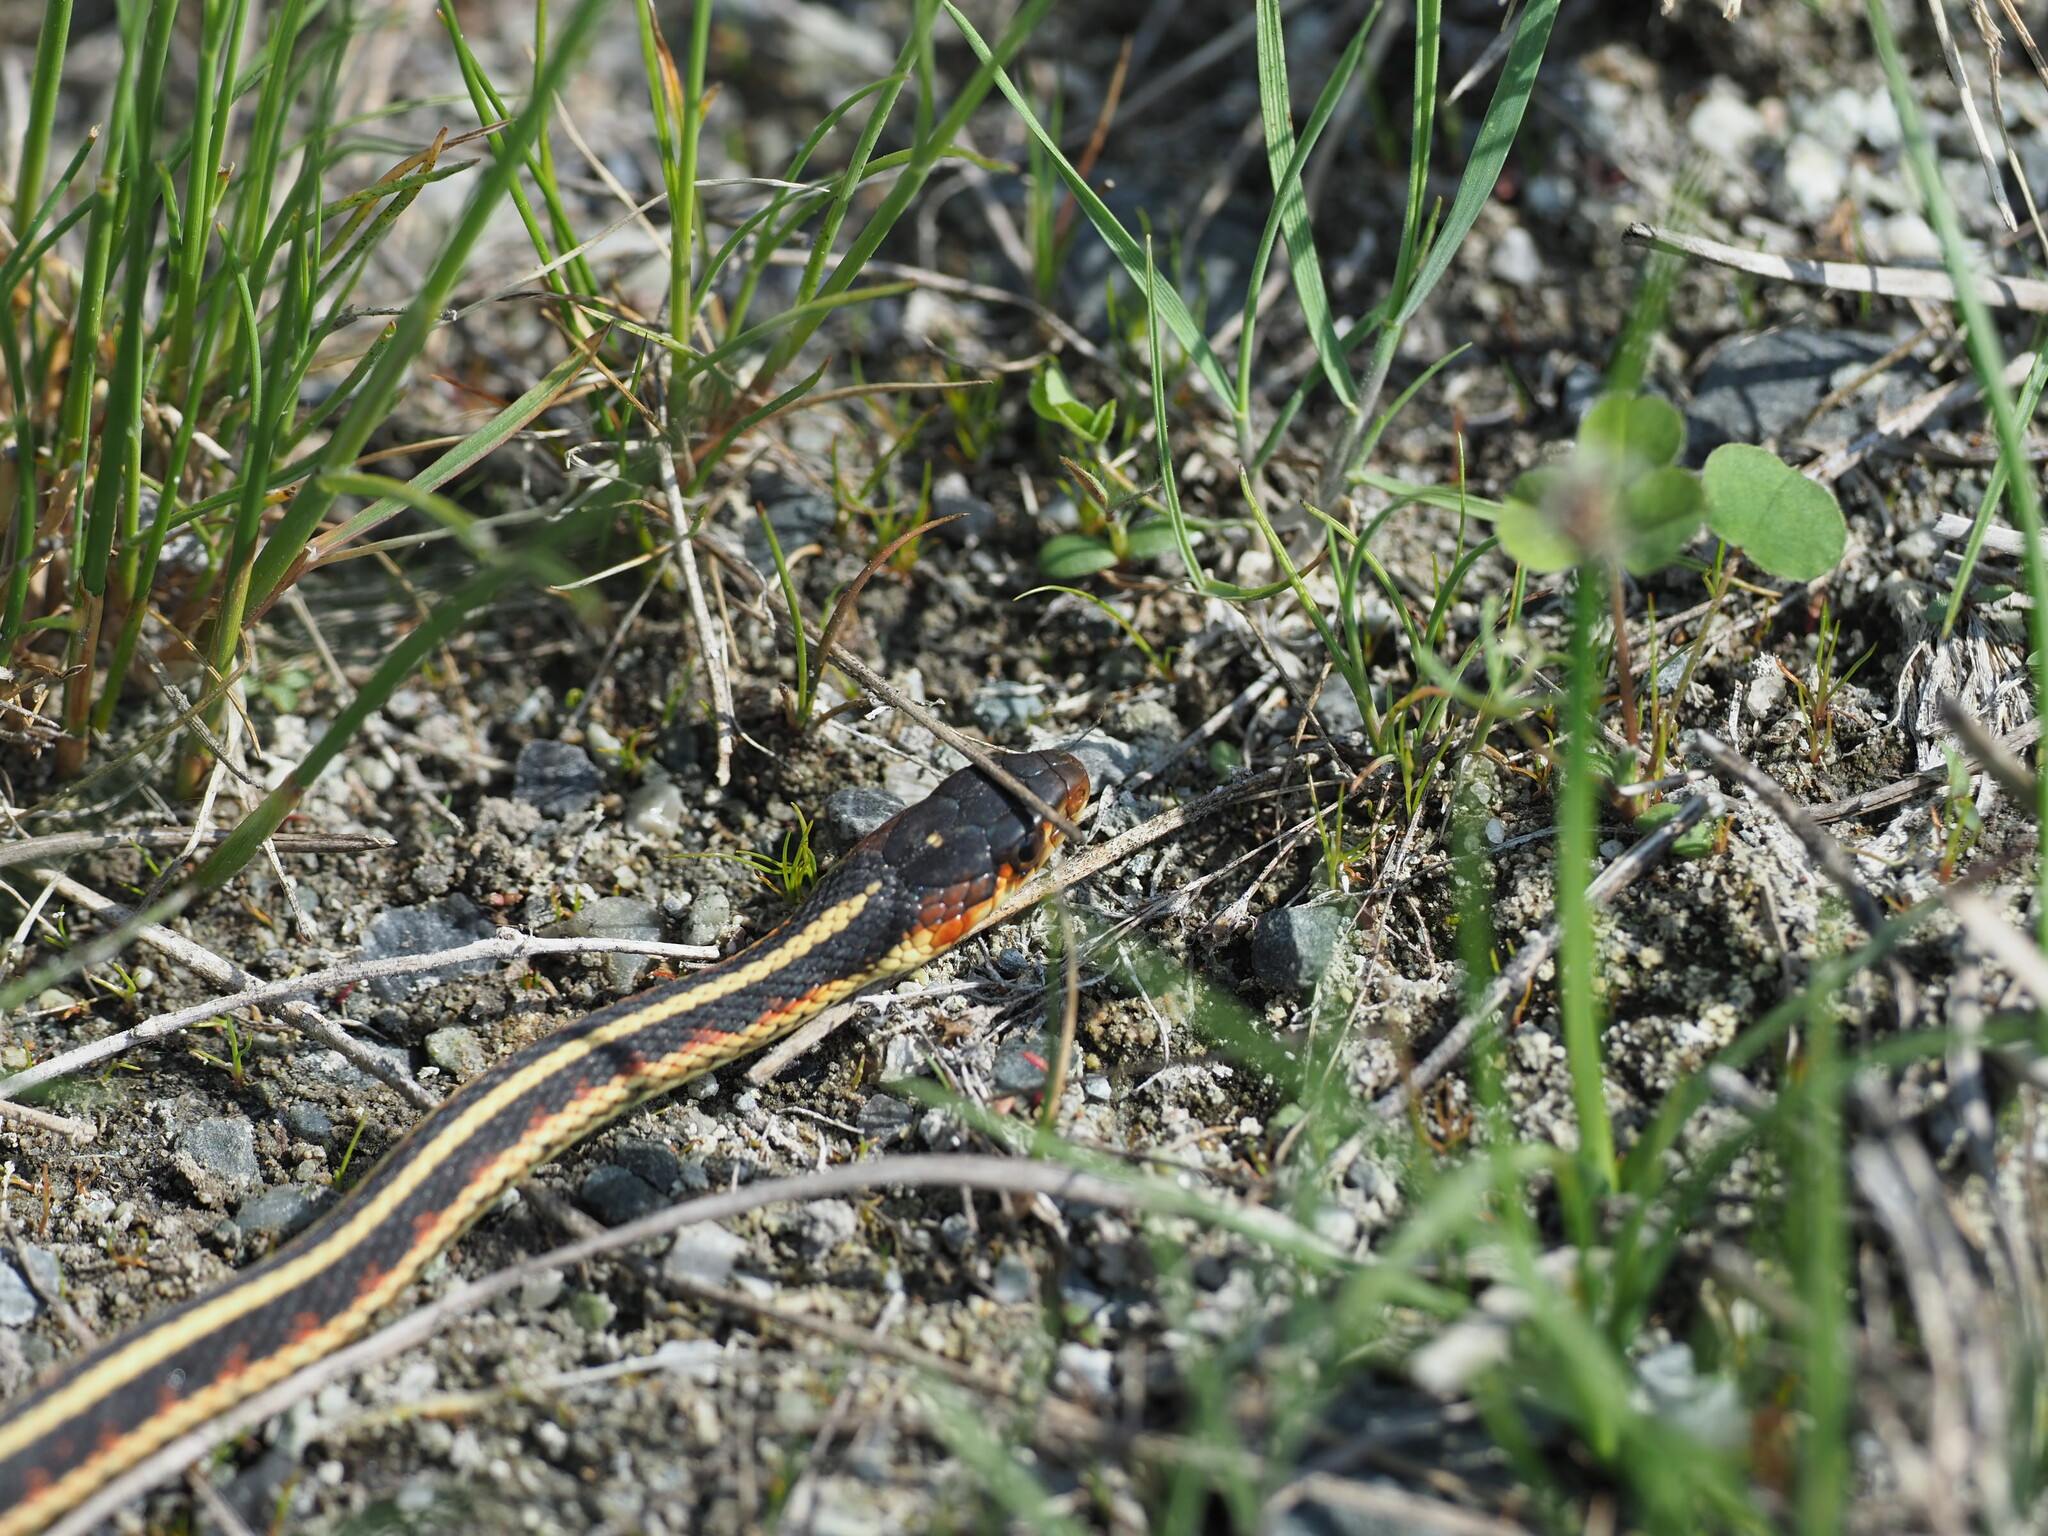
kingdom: Animalia
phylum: Chordata
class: Squamata
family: Colubridae
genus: Thamnophis
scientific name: Thamnophis sirtalis
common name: Common garter snake
